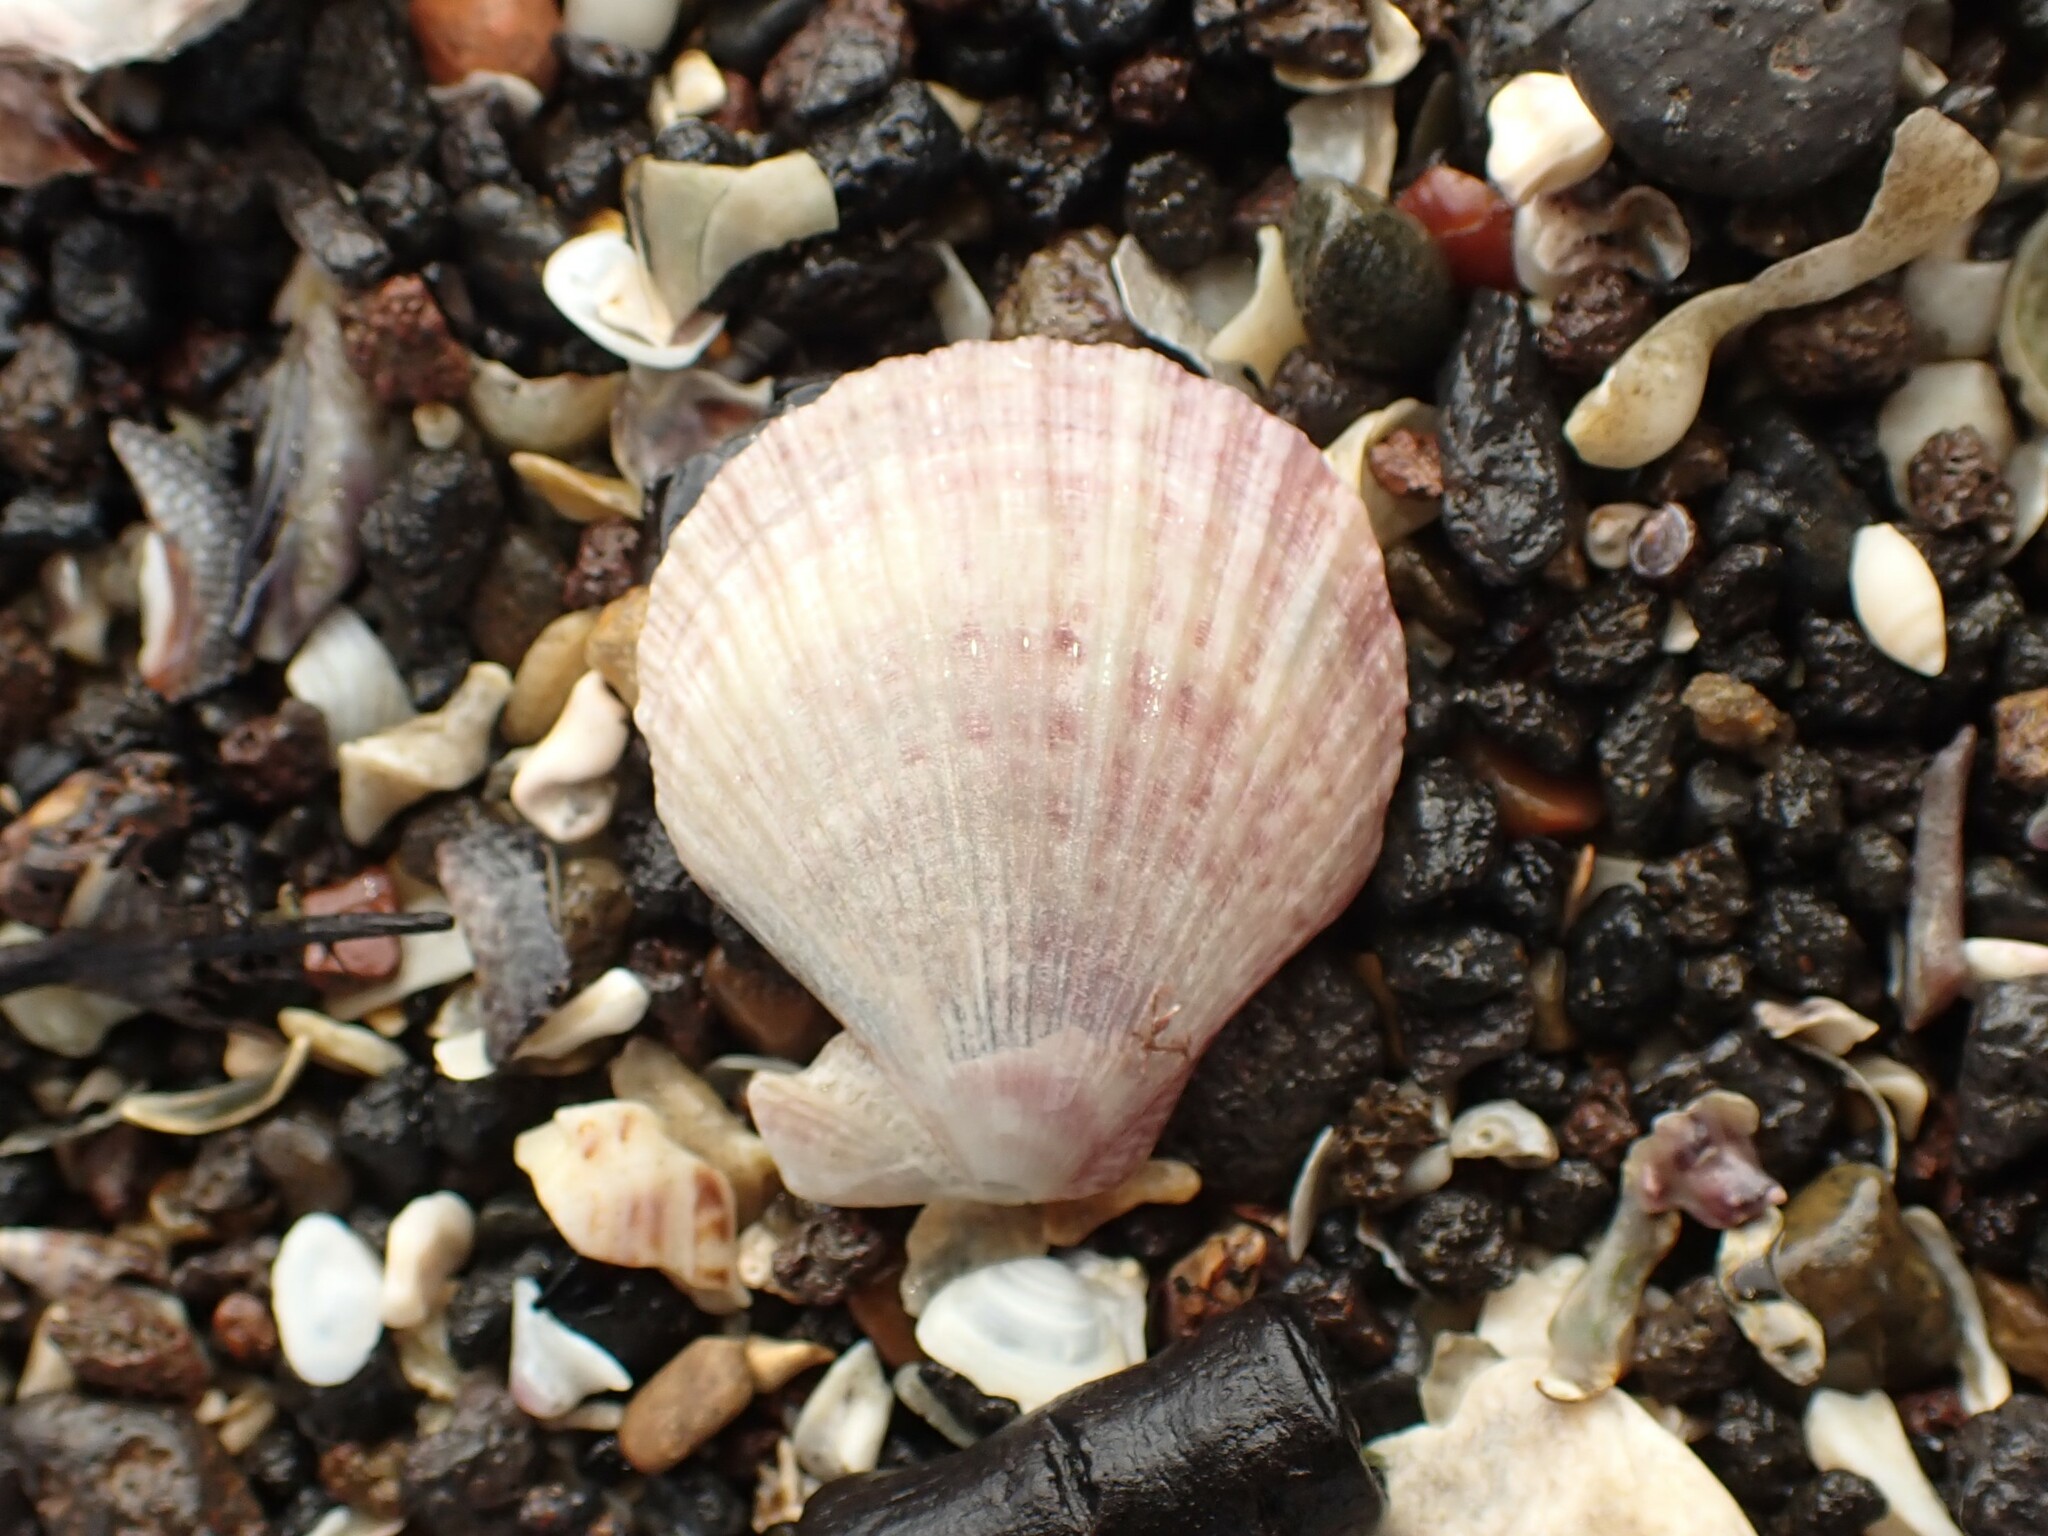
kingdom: Animalia
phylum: Mollusca
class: Bivalvia
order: Pectinida
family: Pectinidae
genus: Talochlamys
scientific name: Talochlamys zelandiae
